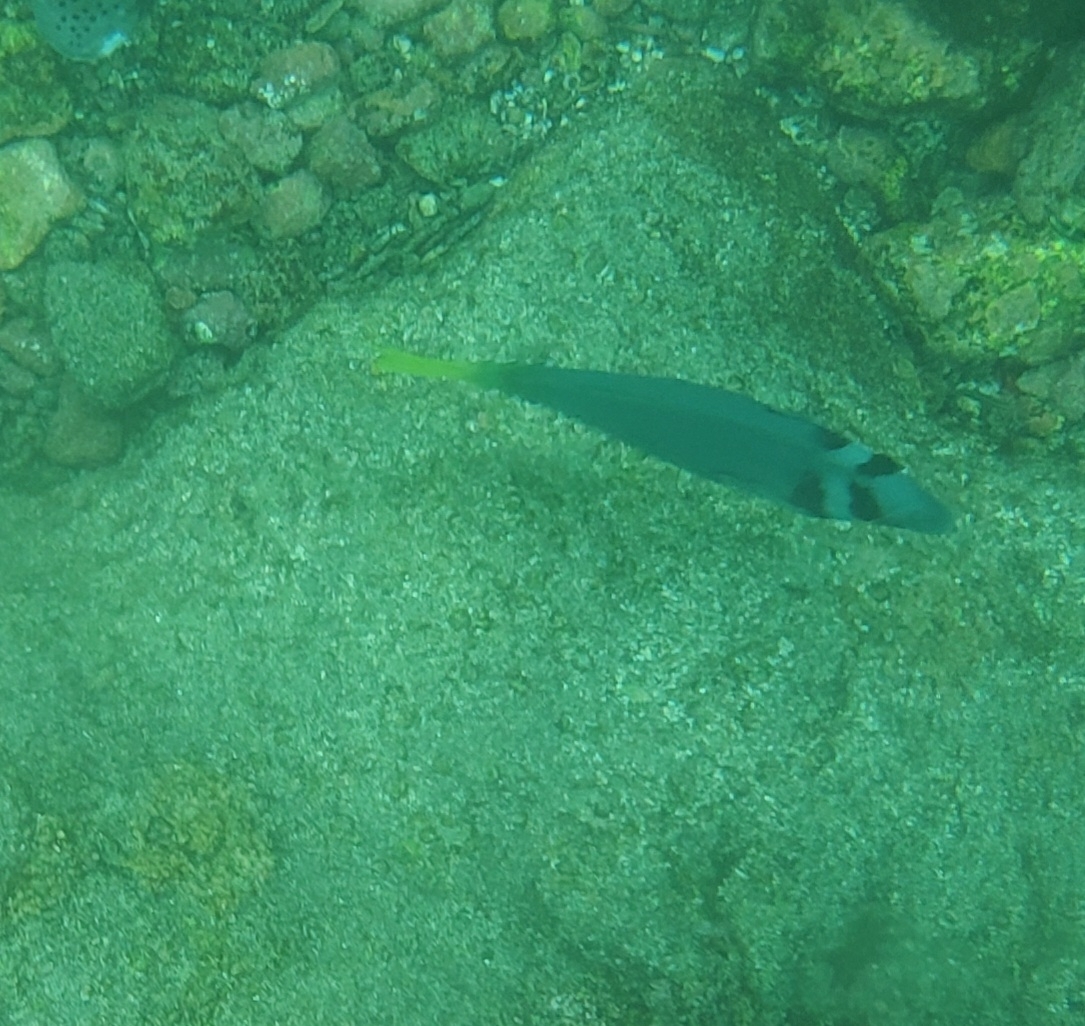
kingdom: Animalia
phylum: Chordata
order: Perciformes
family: Acanthuridae
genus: Prionurus
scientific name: Prionurus laticlavius
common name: Razor surgeonfish
